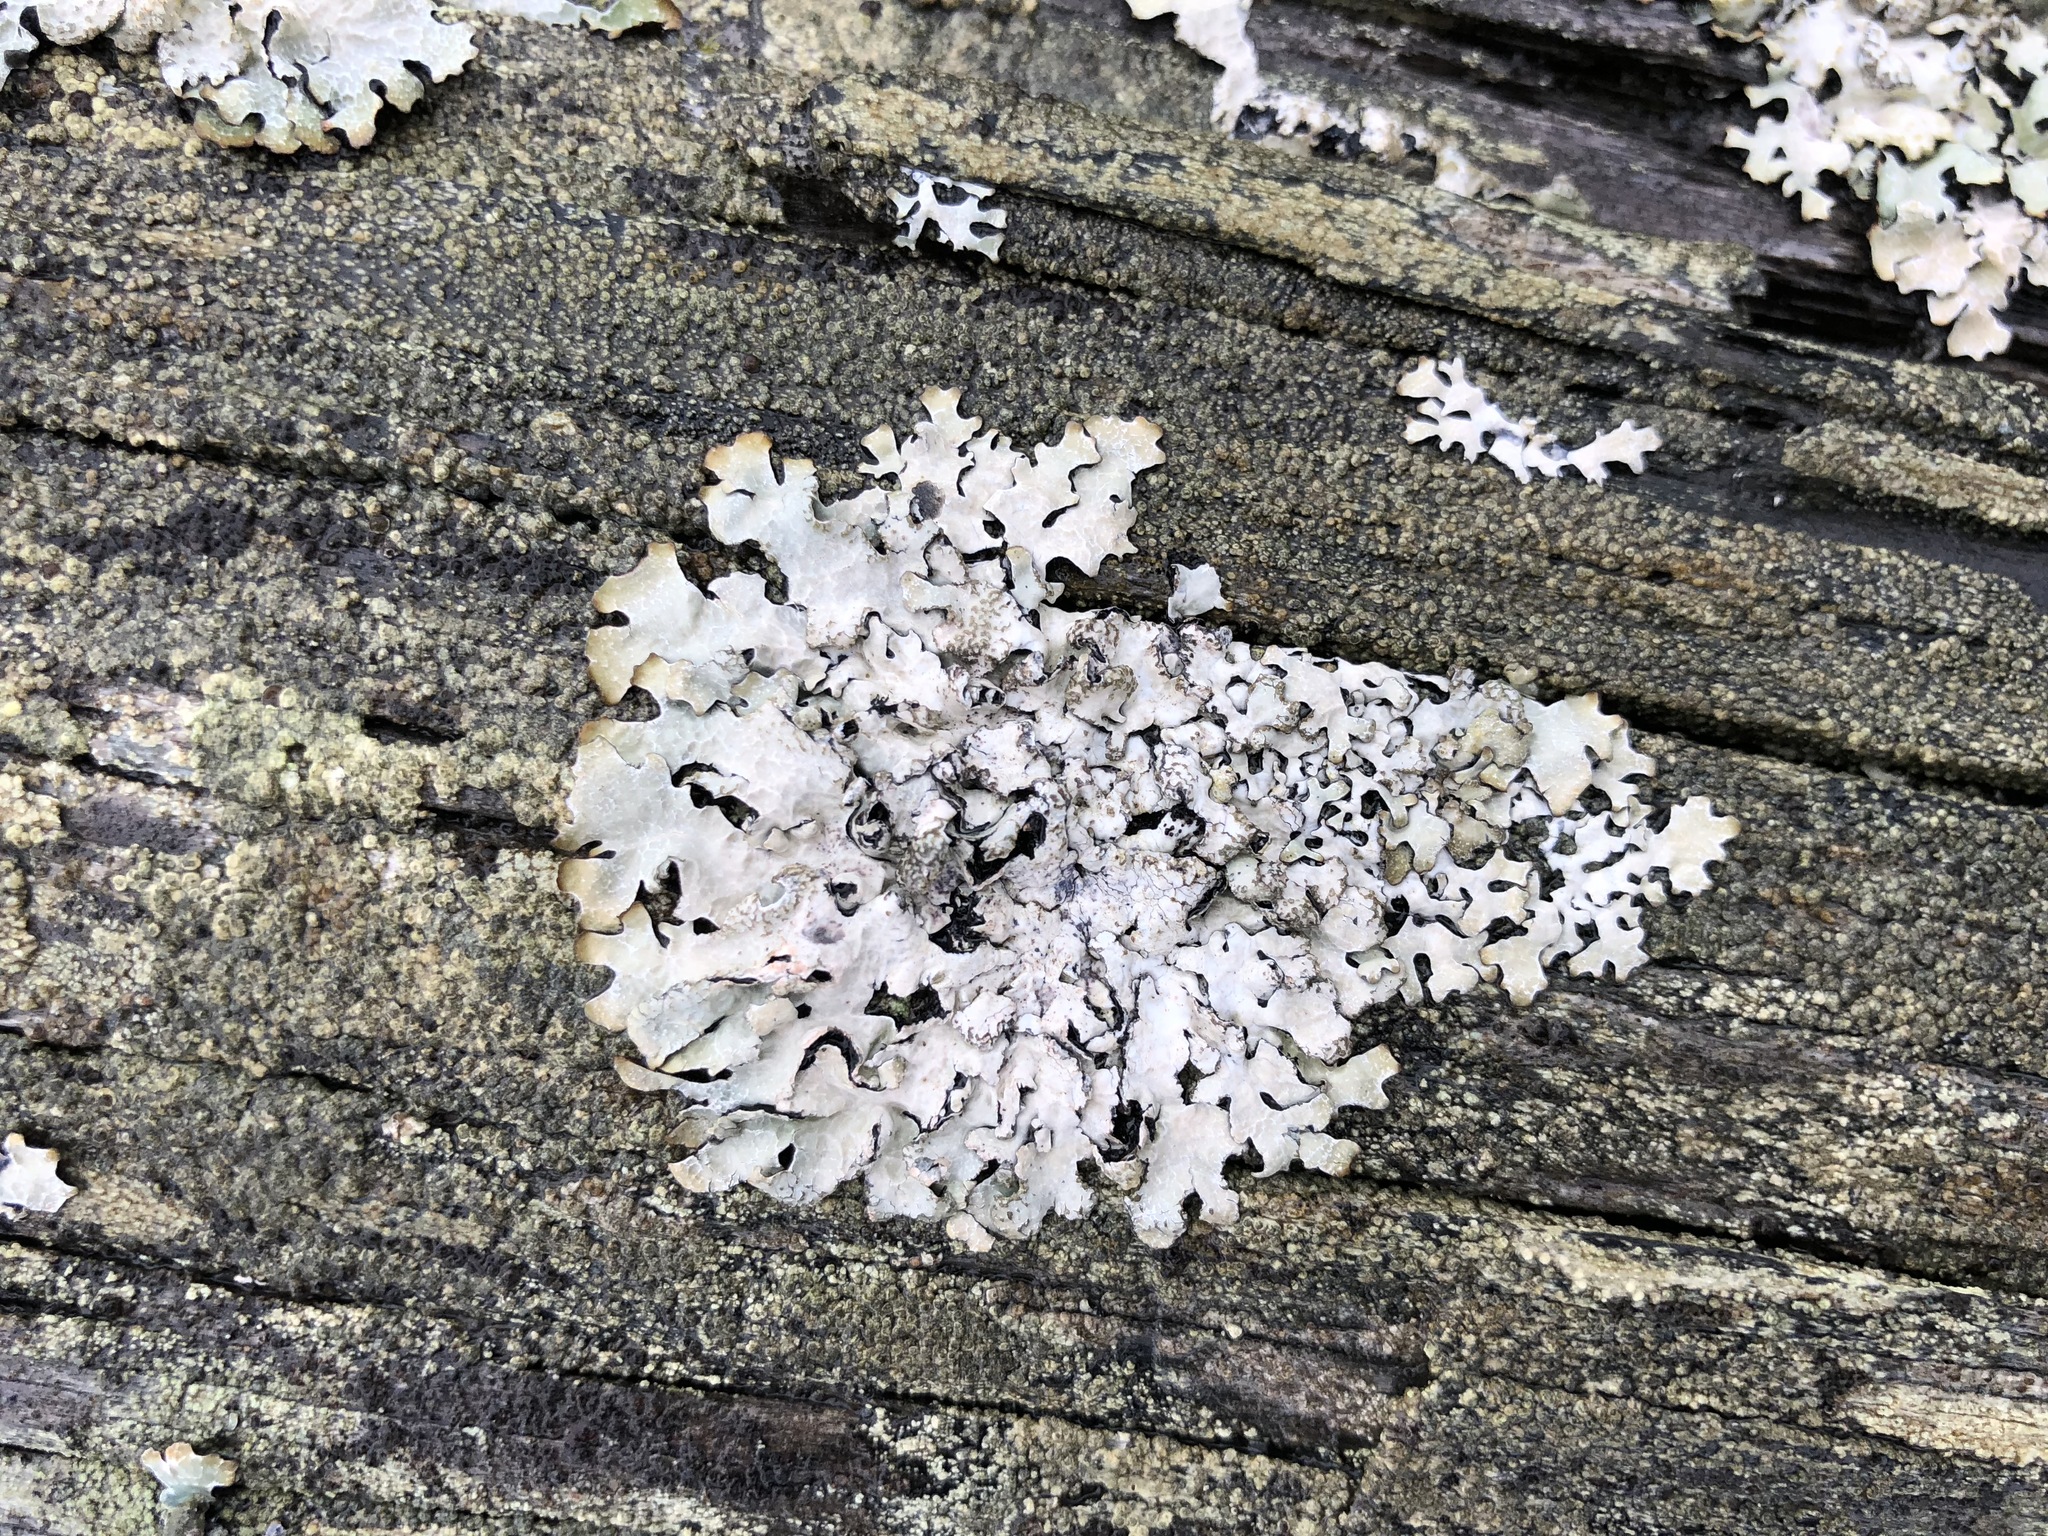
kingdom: Fungi
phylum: Ascomycota
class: Lecanoromycetes
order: Lecanorales
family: Parmeliaceae
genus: Parmelia
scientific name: Parmelia sulcata
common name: Netted shield lichen
